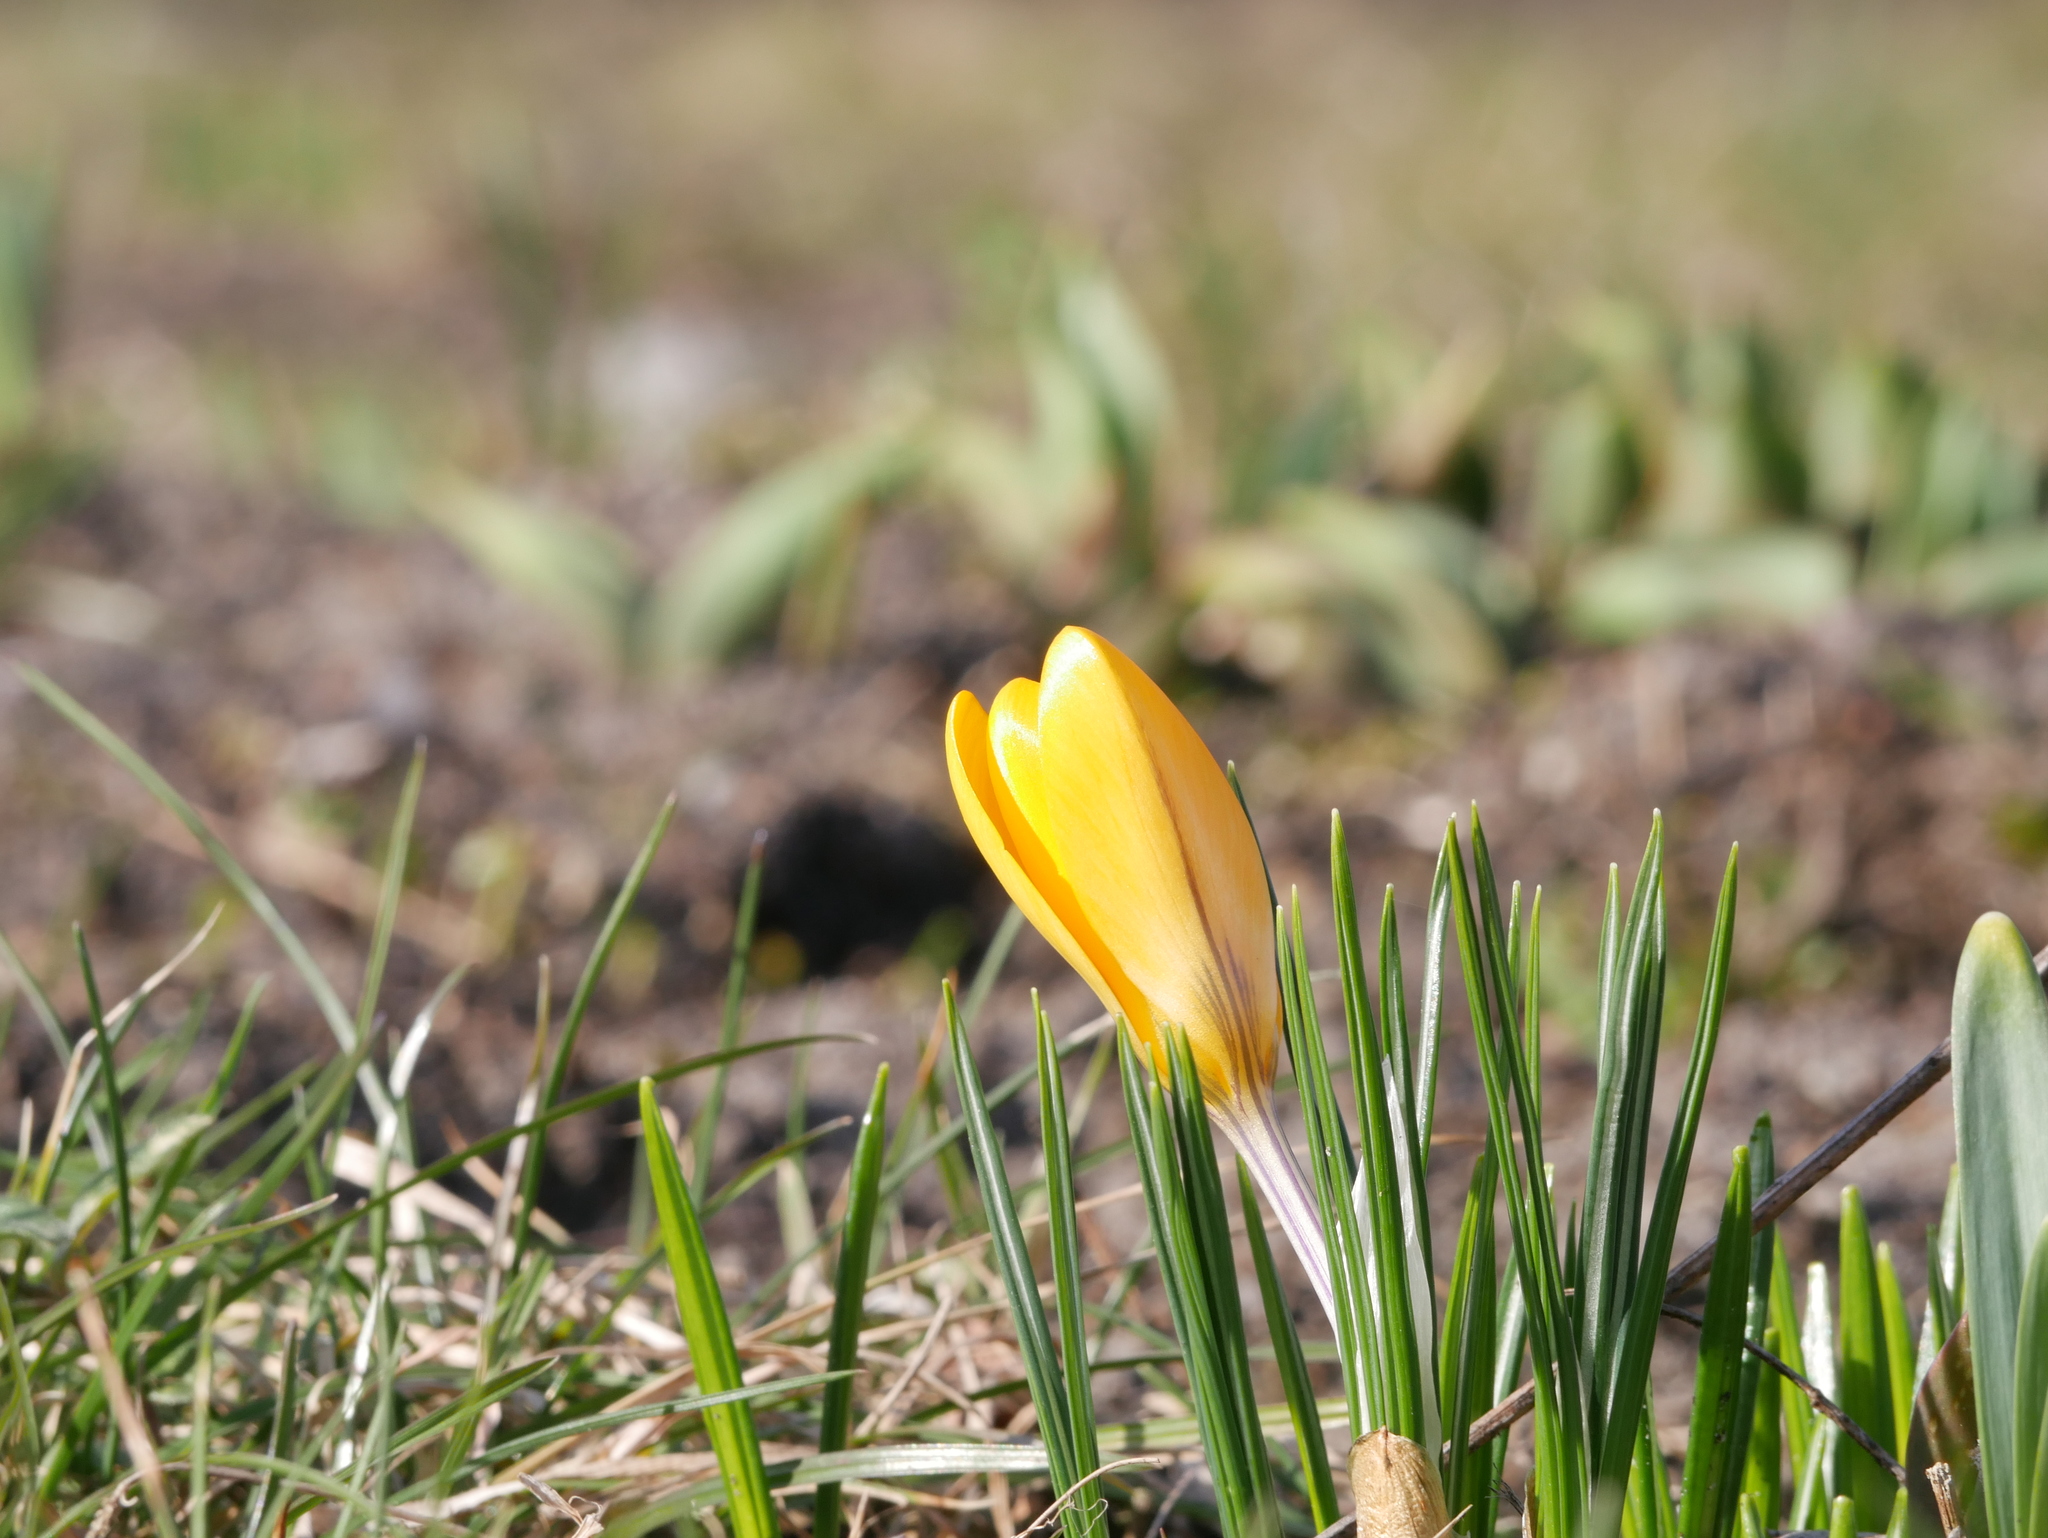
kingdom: Plantae
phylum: Tracheophyta
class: Liliopsida
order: Asparagales
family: Iridaceae
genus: Crocus
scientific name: Crocus luteus
